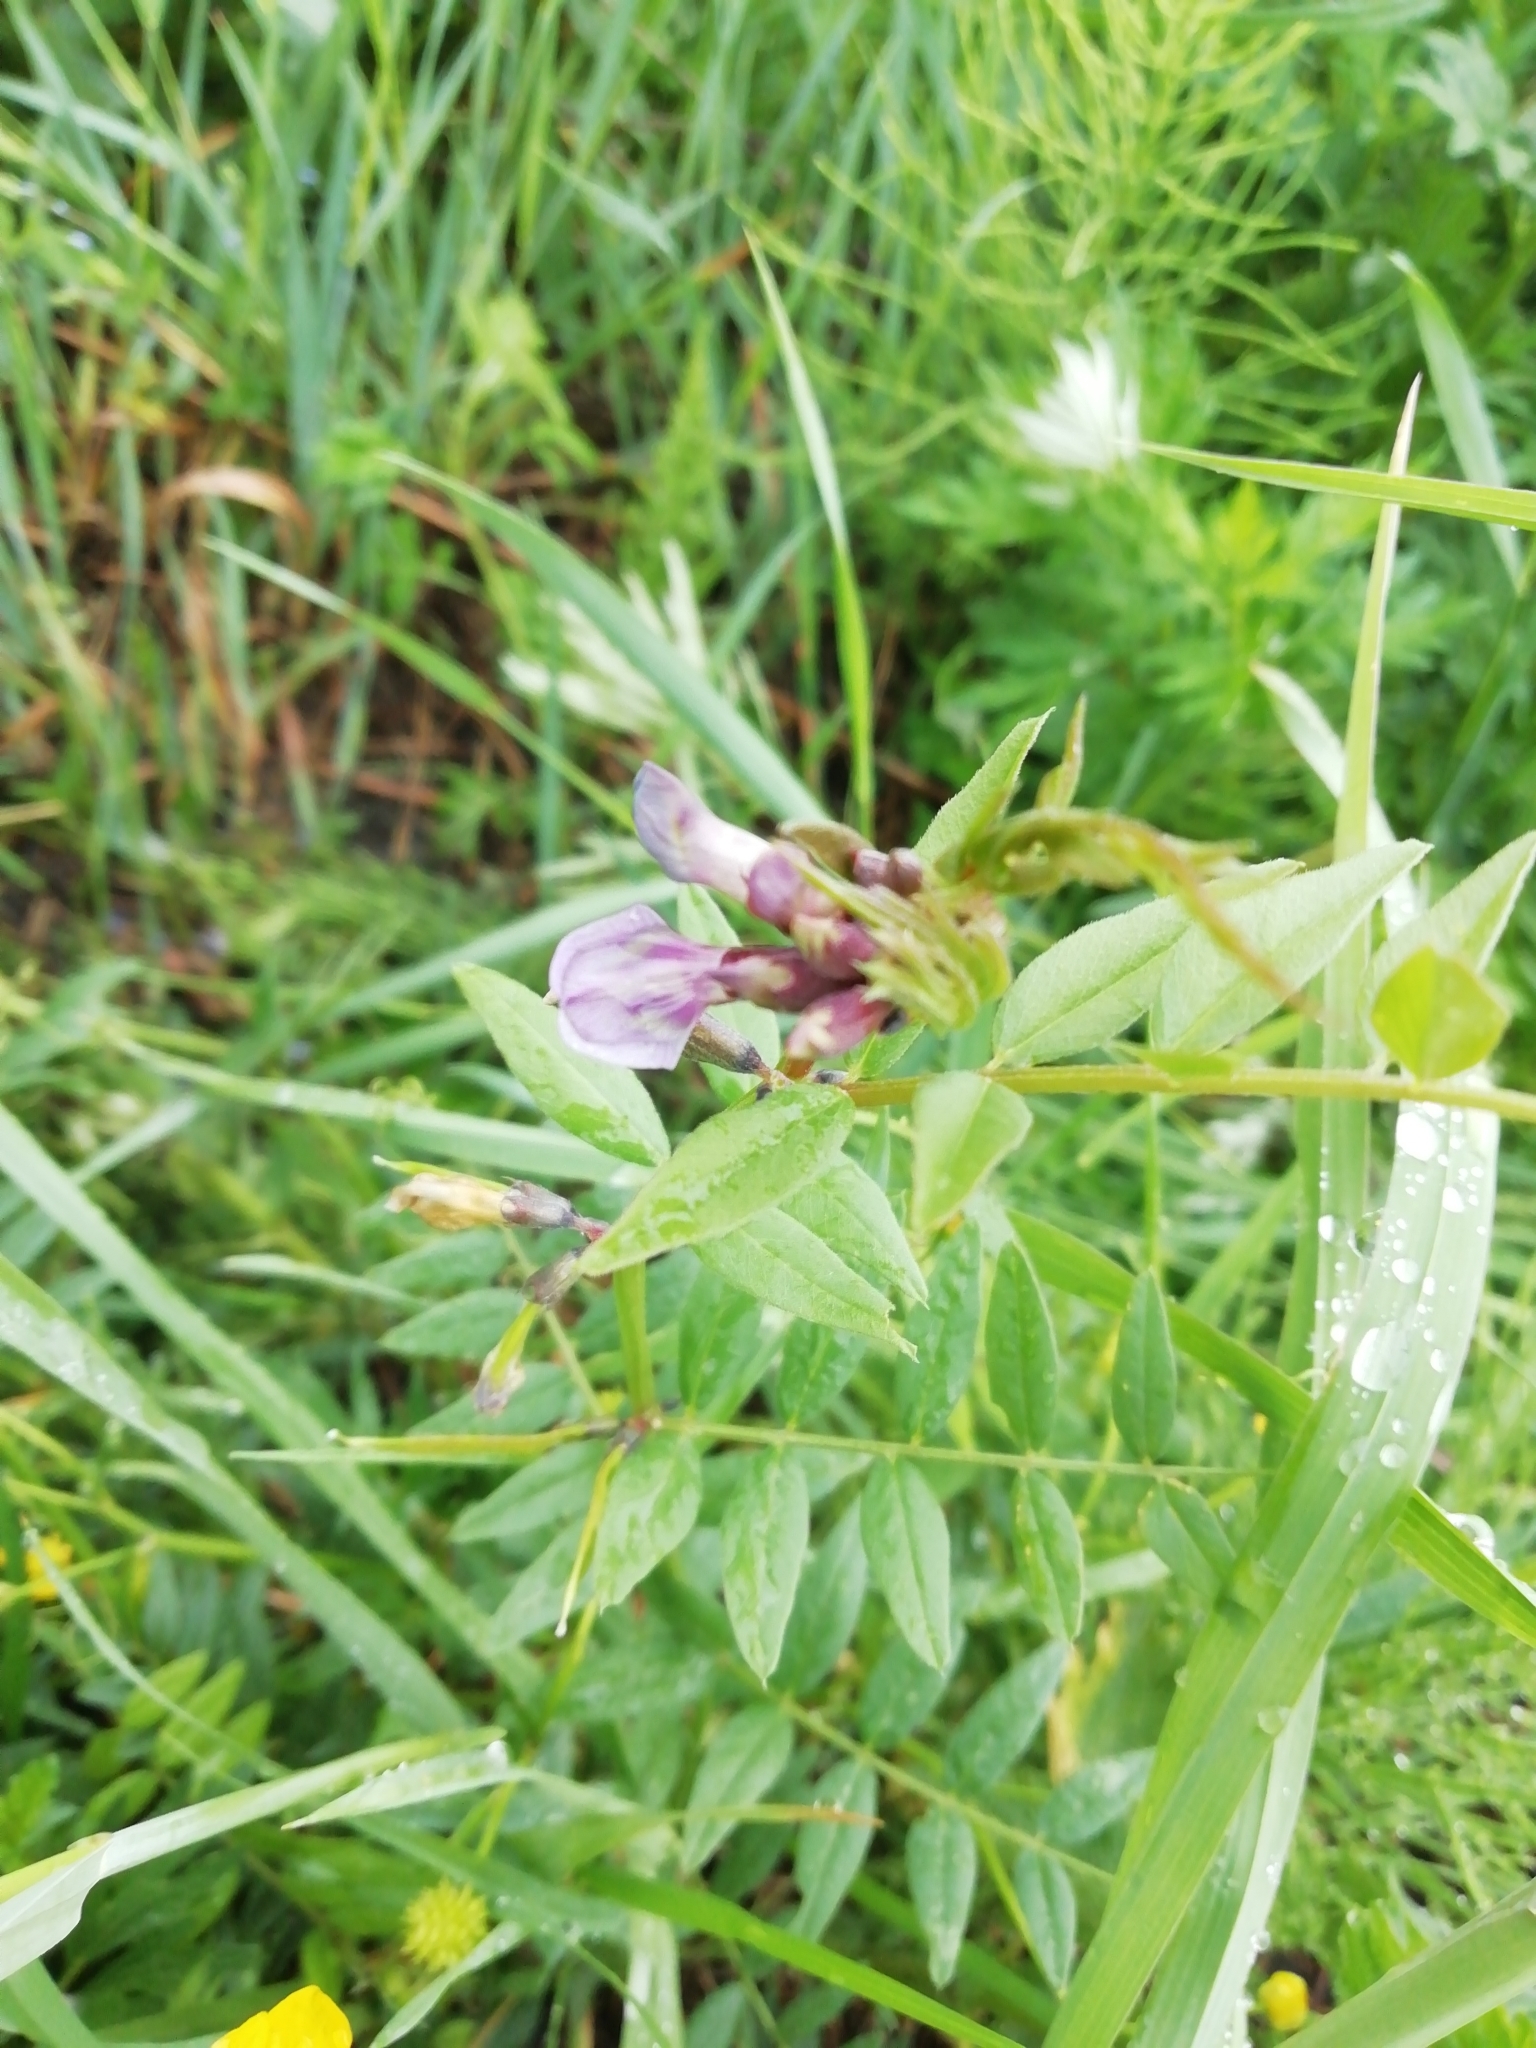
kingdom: Plantae
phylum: Tracheophyta
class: Magnoliopsida
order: Fabales
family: Fabaceae
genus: Vicia
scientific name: Vicia sepium
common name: Bush vetch
